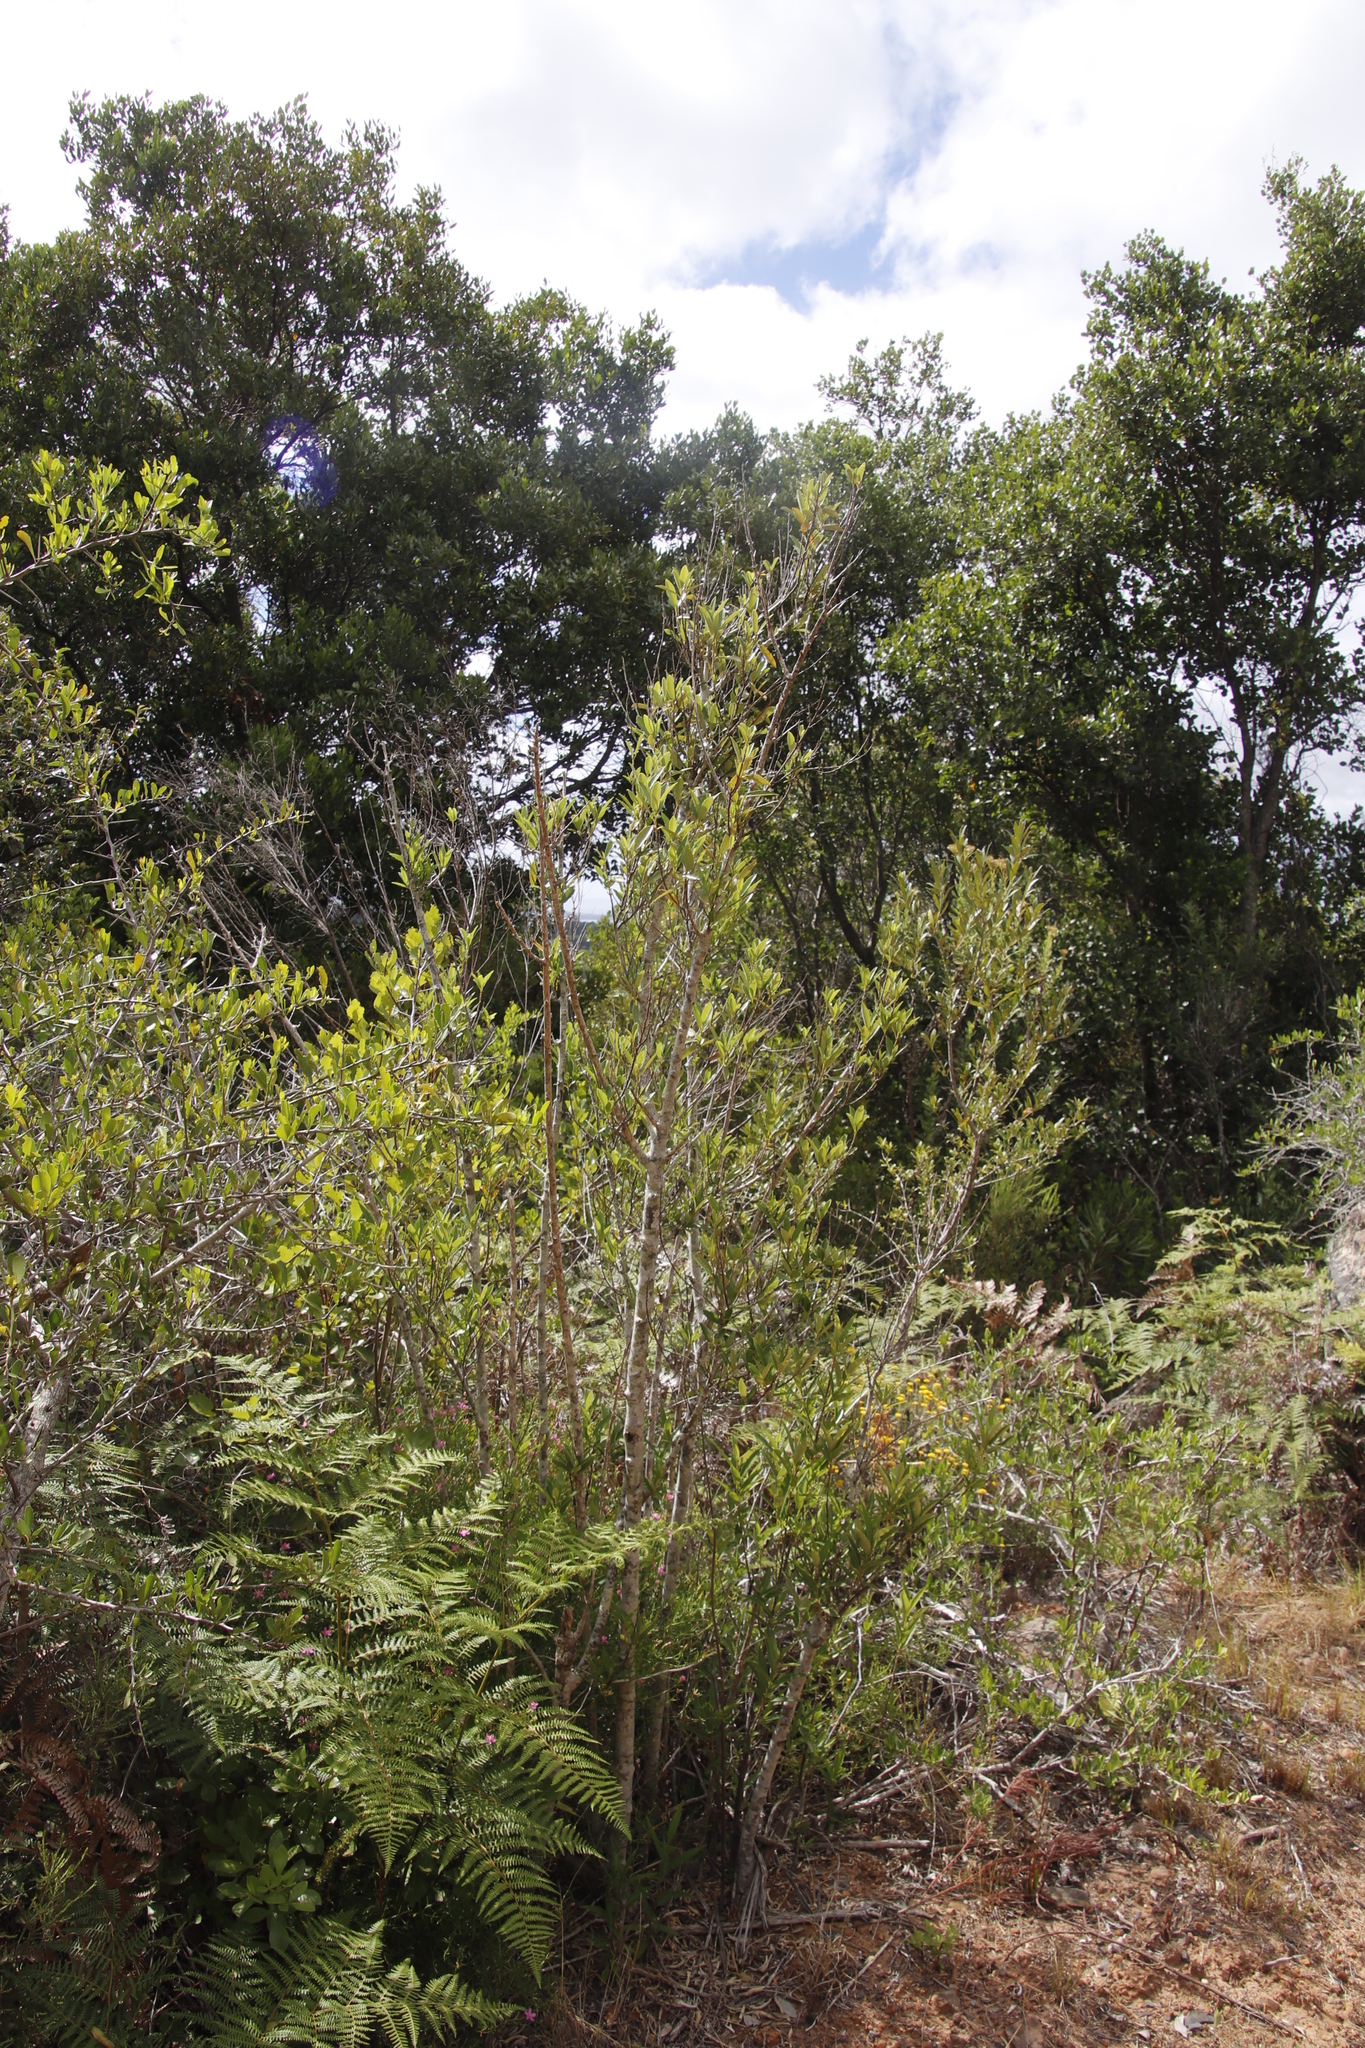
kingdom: Plantae
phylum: Tracheophyta
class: Magnoliopsida
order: Malpighiales
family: Achariaceae
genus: Kiggelaria
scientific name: Kiggelaria africana
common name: Wild peach
